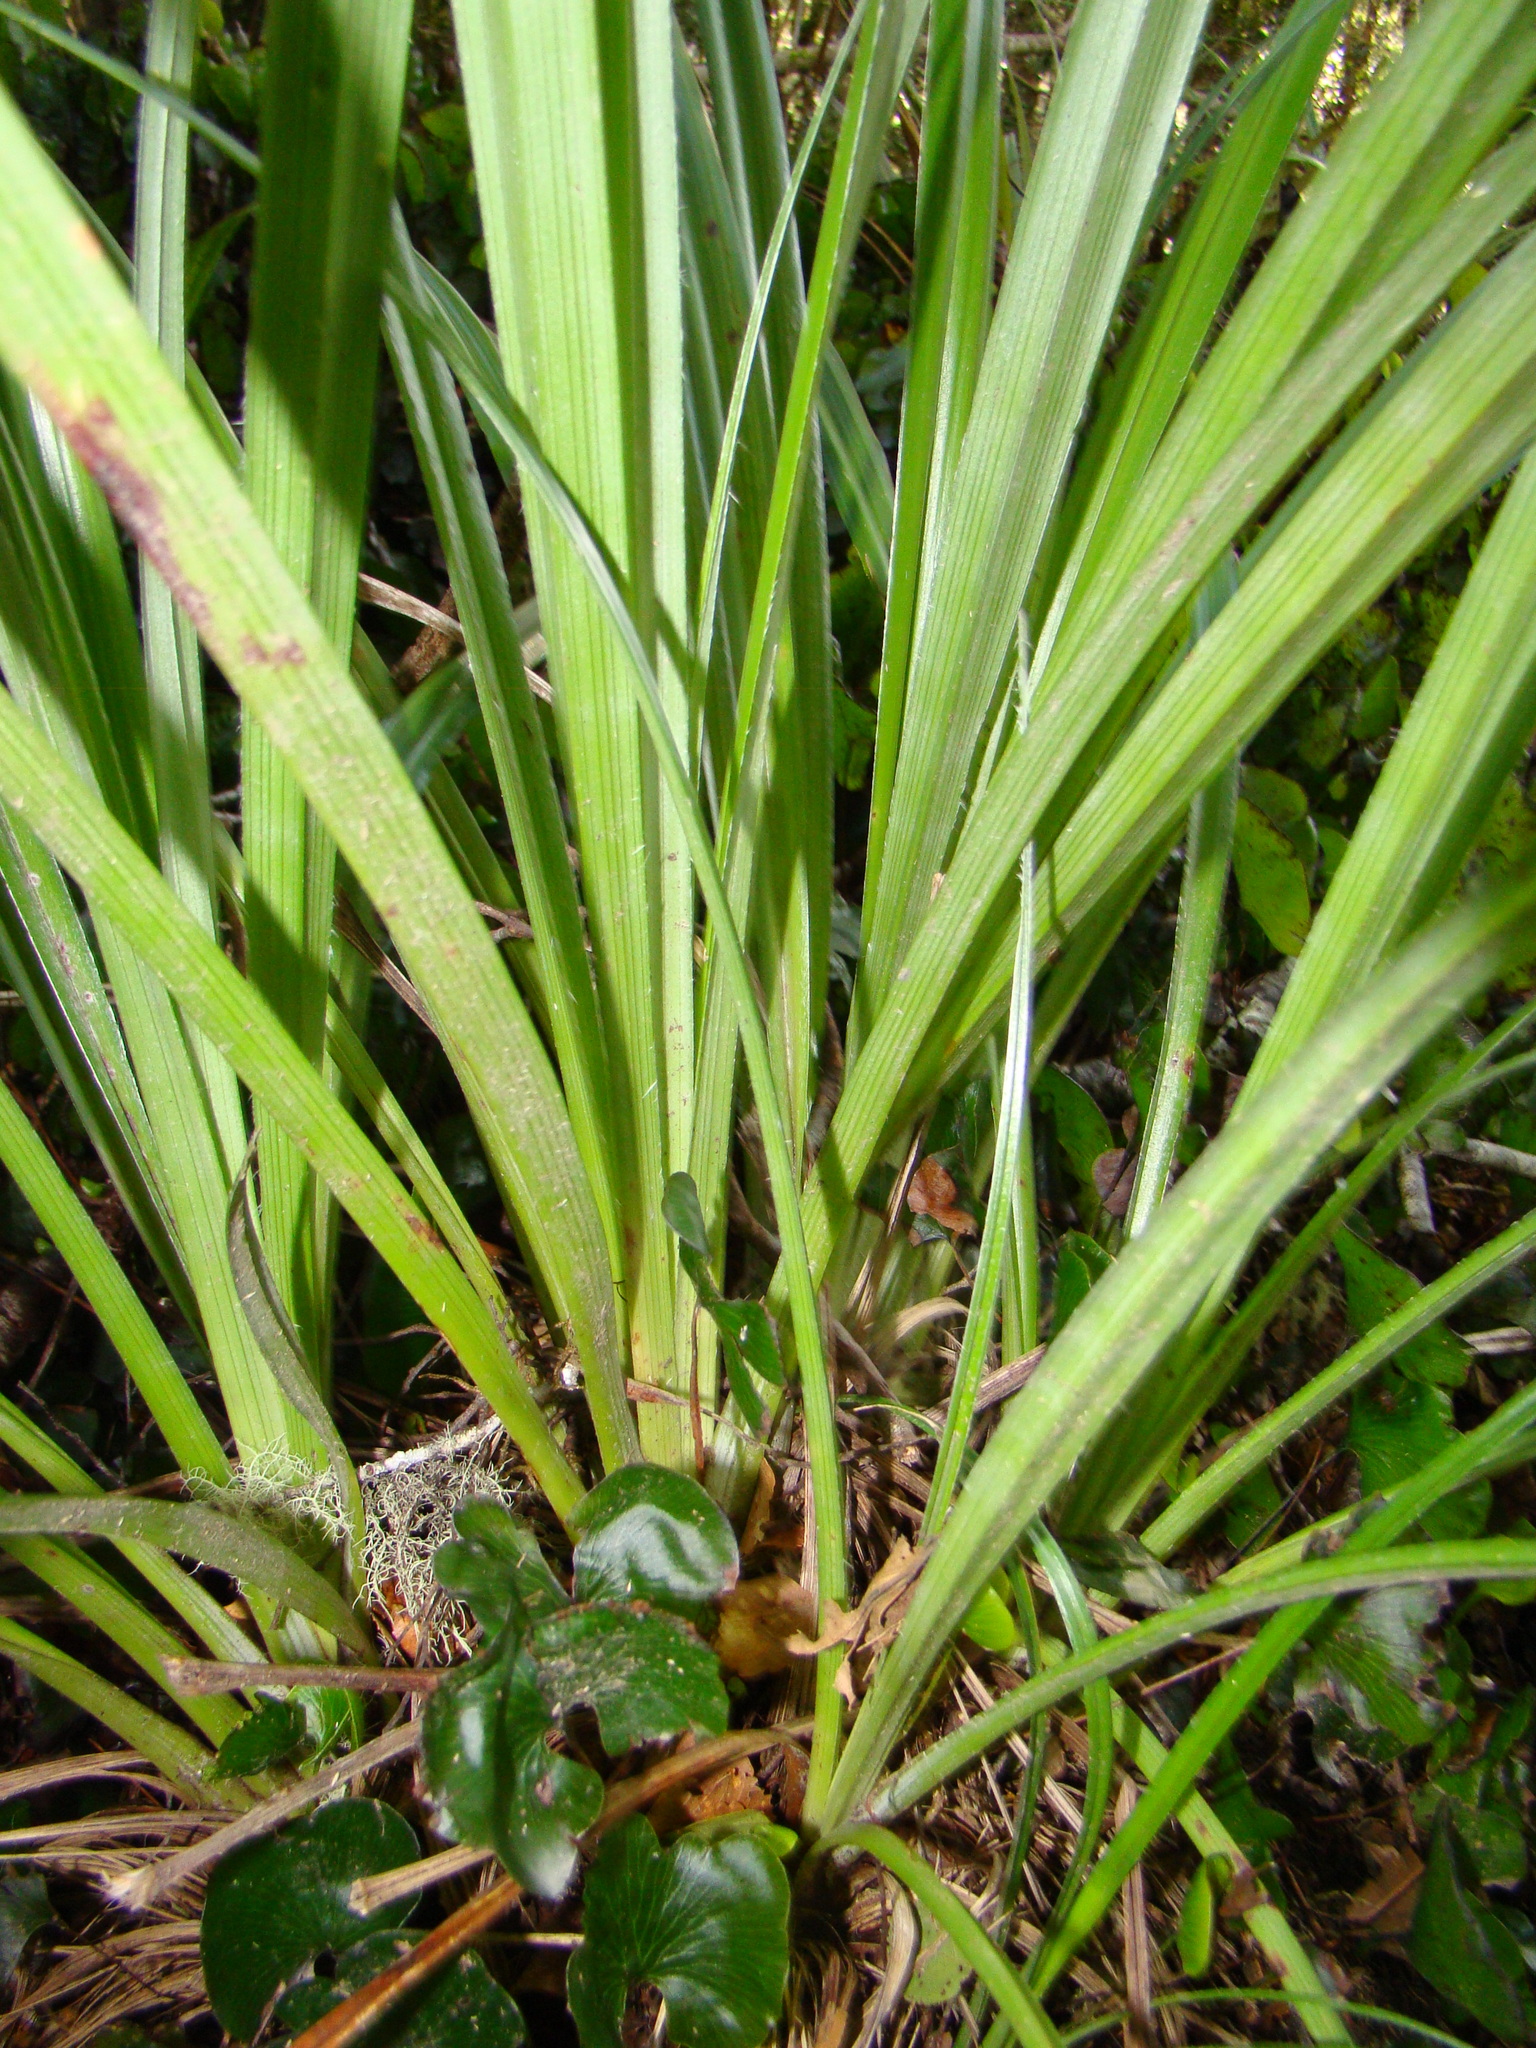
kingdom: Plantae
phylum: Tracheophyta
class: Liliopsida
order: Asparagales
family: Asteliaceae
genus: Astelia
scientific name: Astelia solandri
